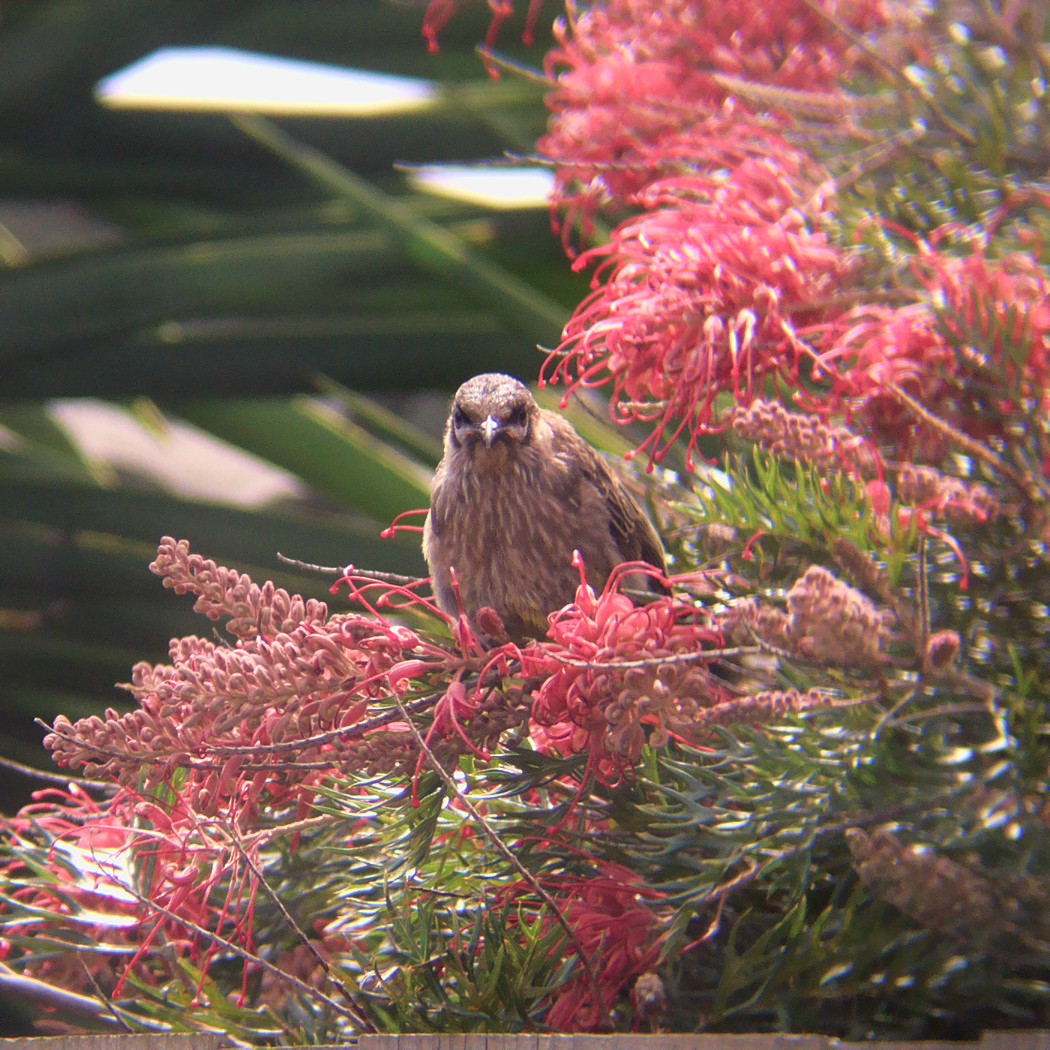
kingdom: Animalia
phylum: Chordata
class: Aves
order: Passeriformes
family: Meliphagidae
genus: Anthochaera
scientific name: Anthochaera carunculata
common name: Red wattlebird
